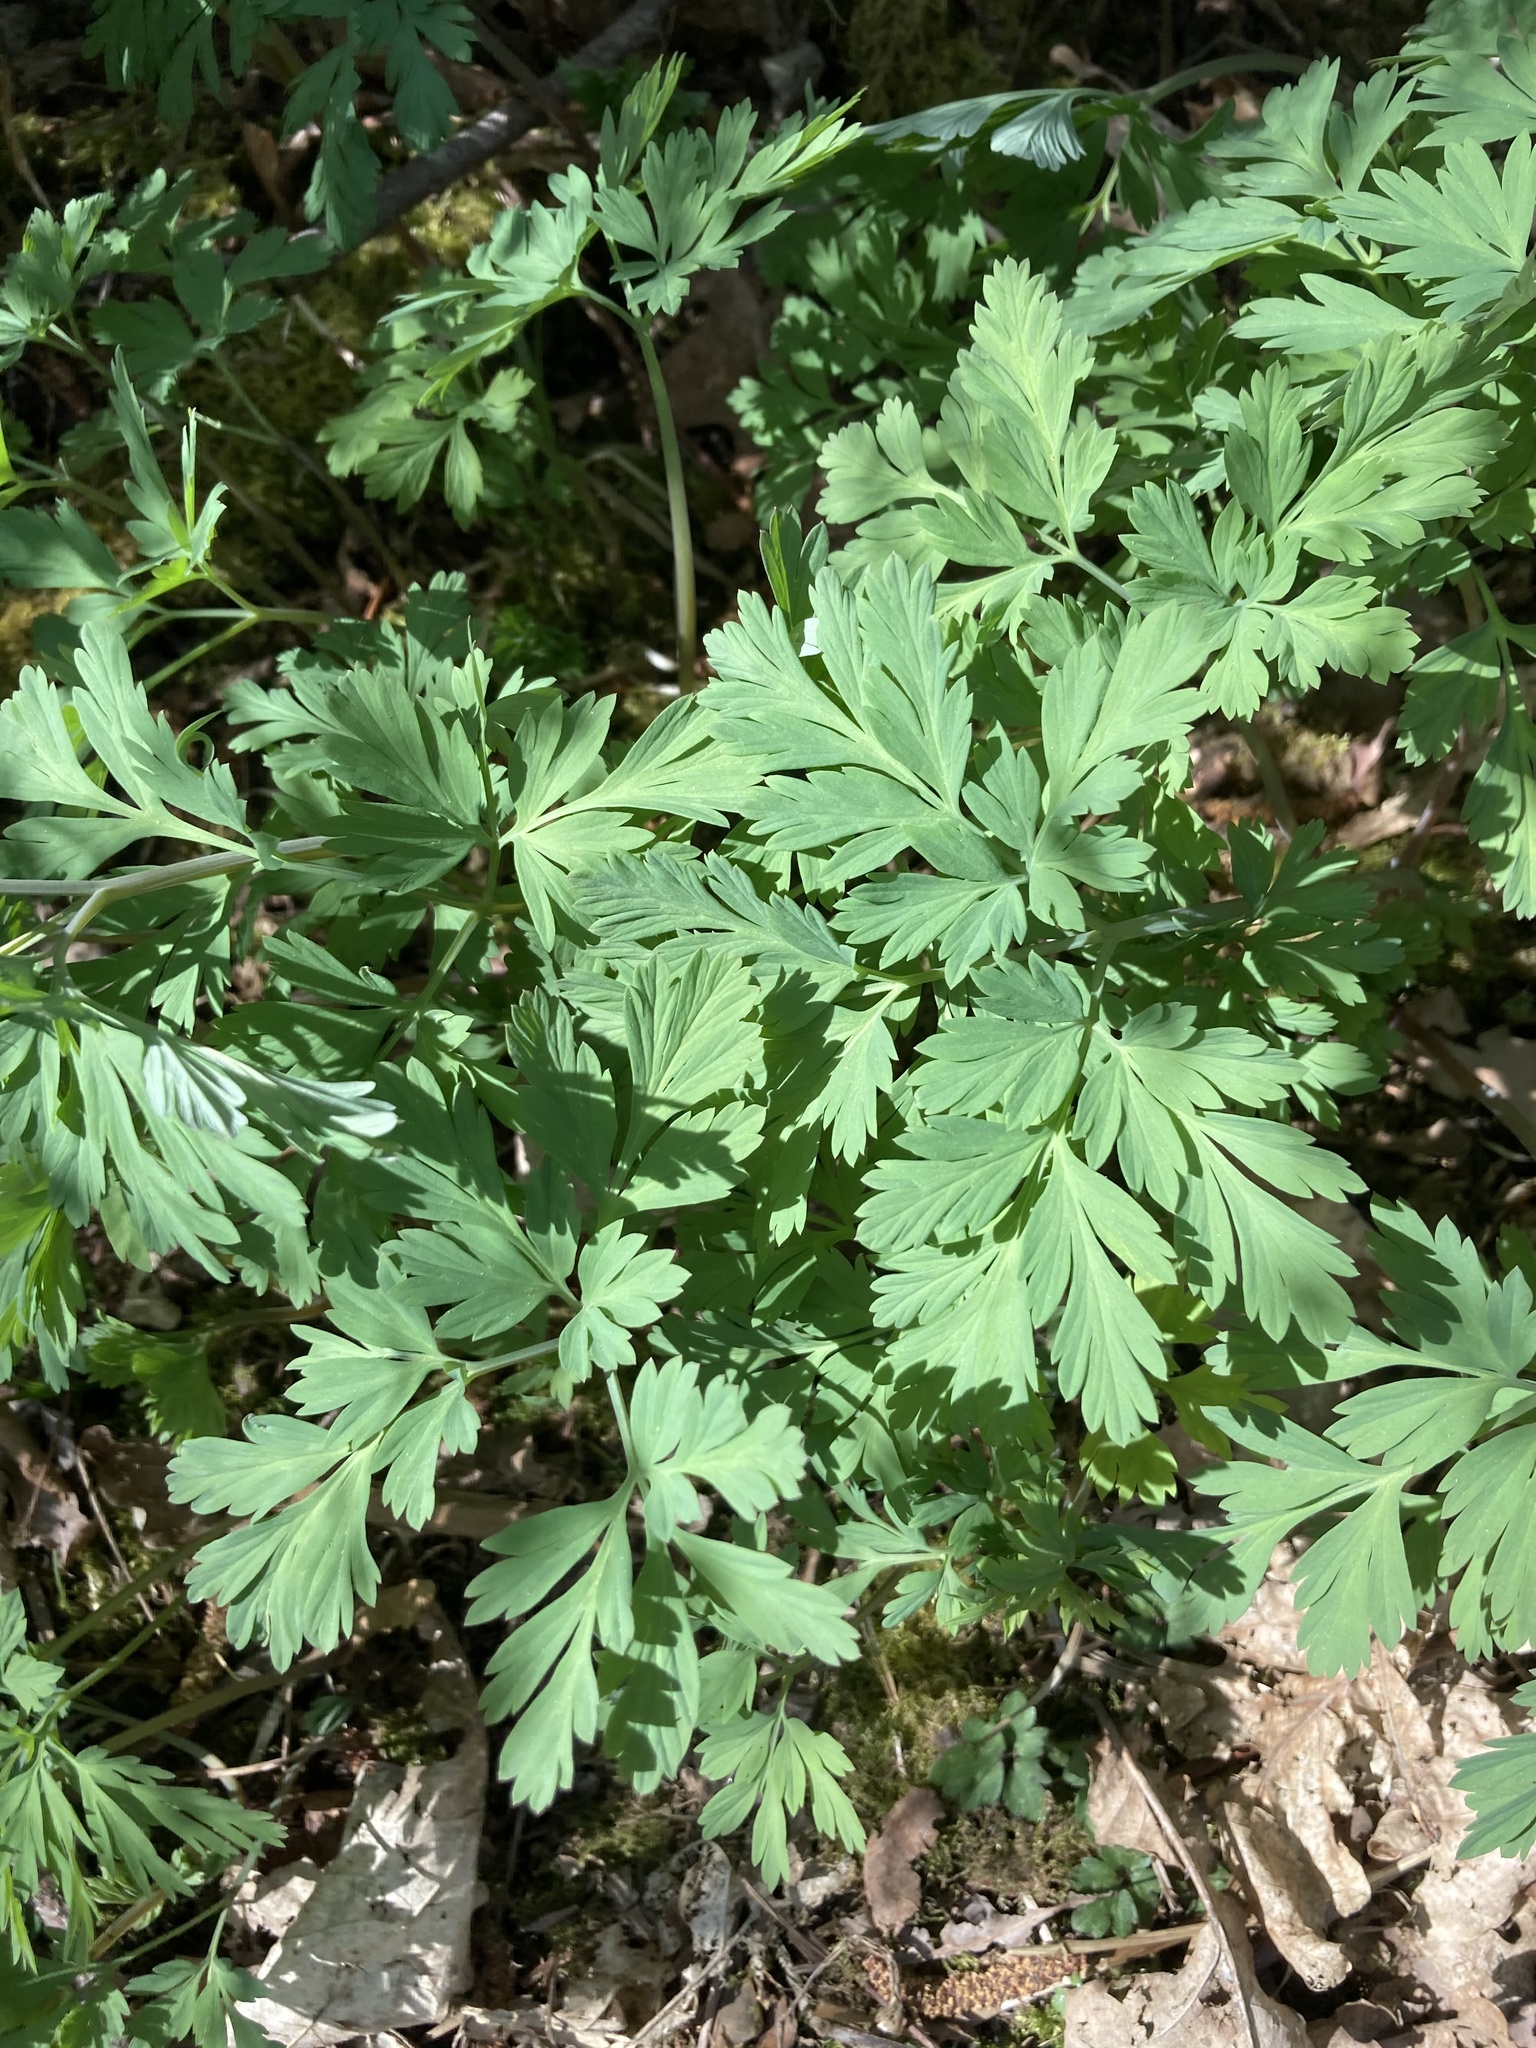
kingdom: Plantae
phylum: Tracheophyta
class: Magnoliopsida
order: Ranunculales
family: Papaveraceae
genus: Dicentra
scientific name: Dicentra formosa
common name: Bleeding-heart
